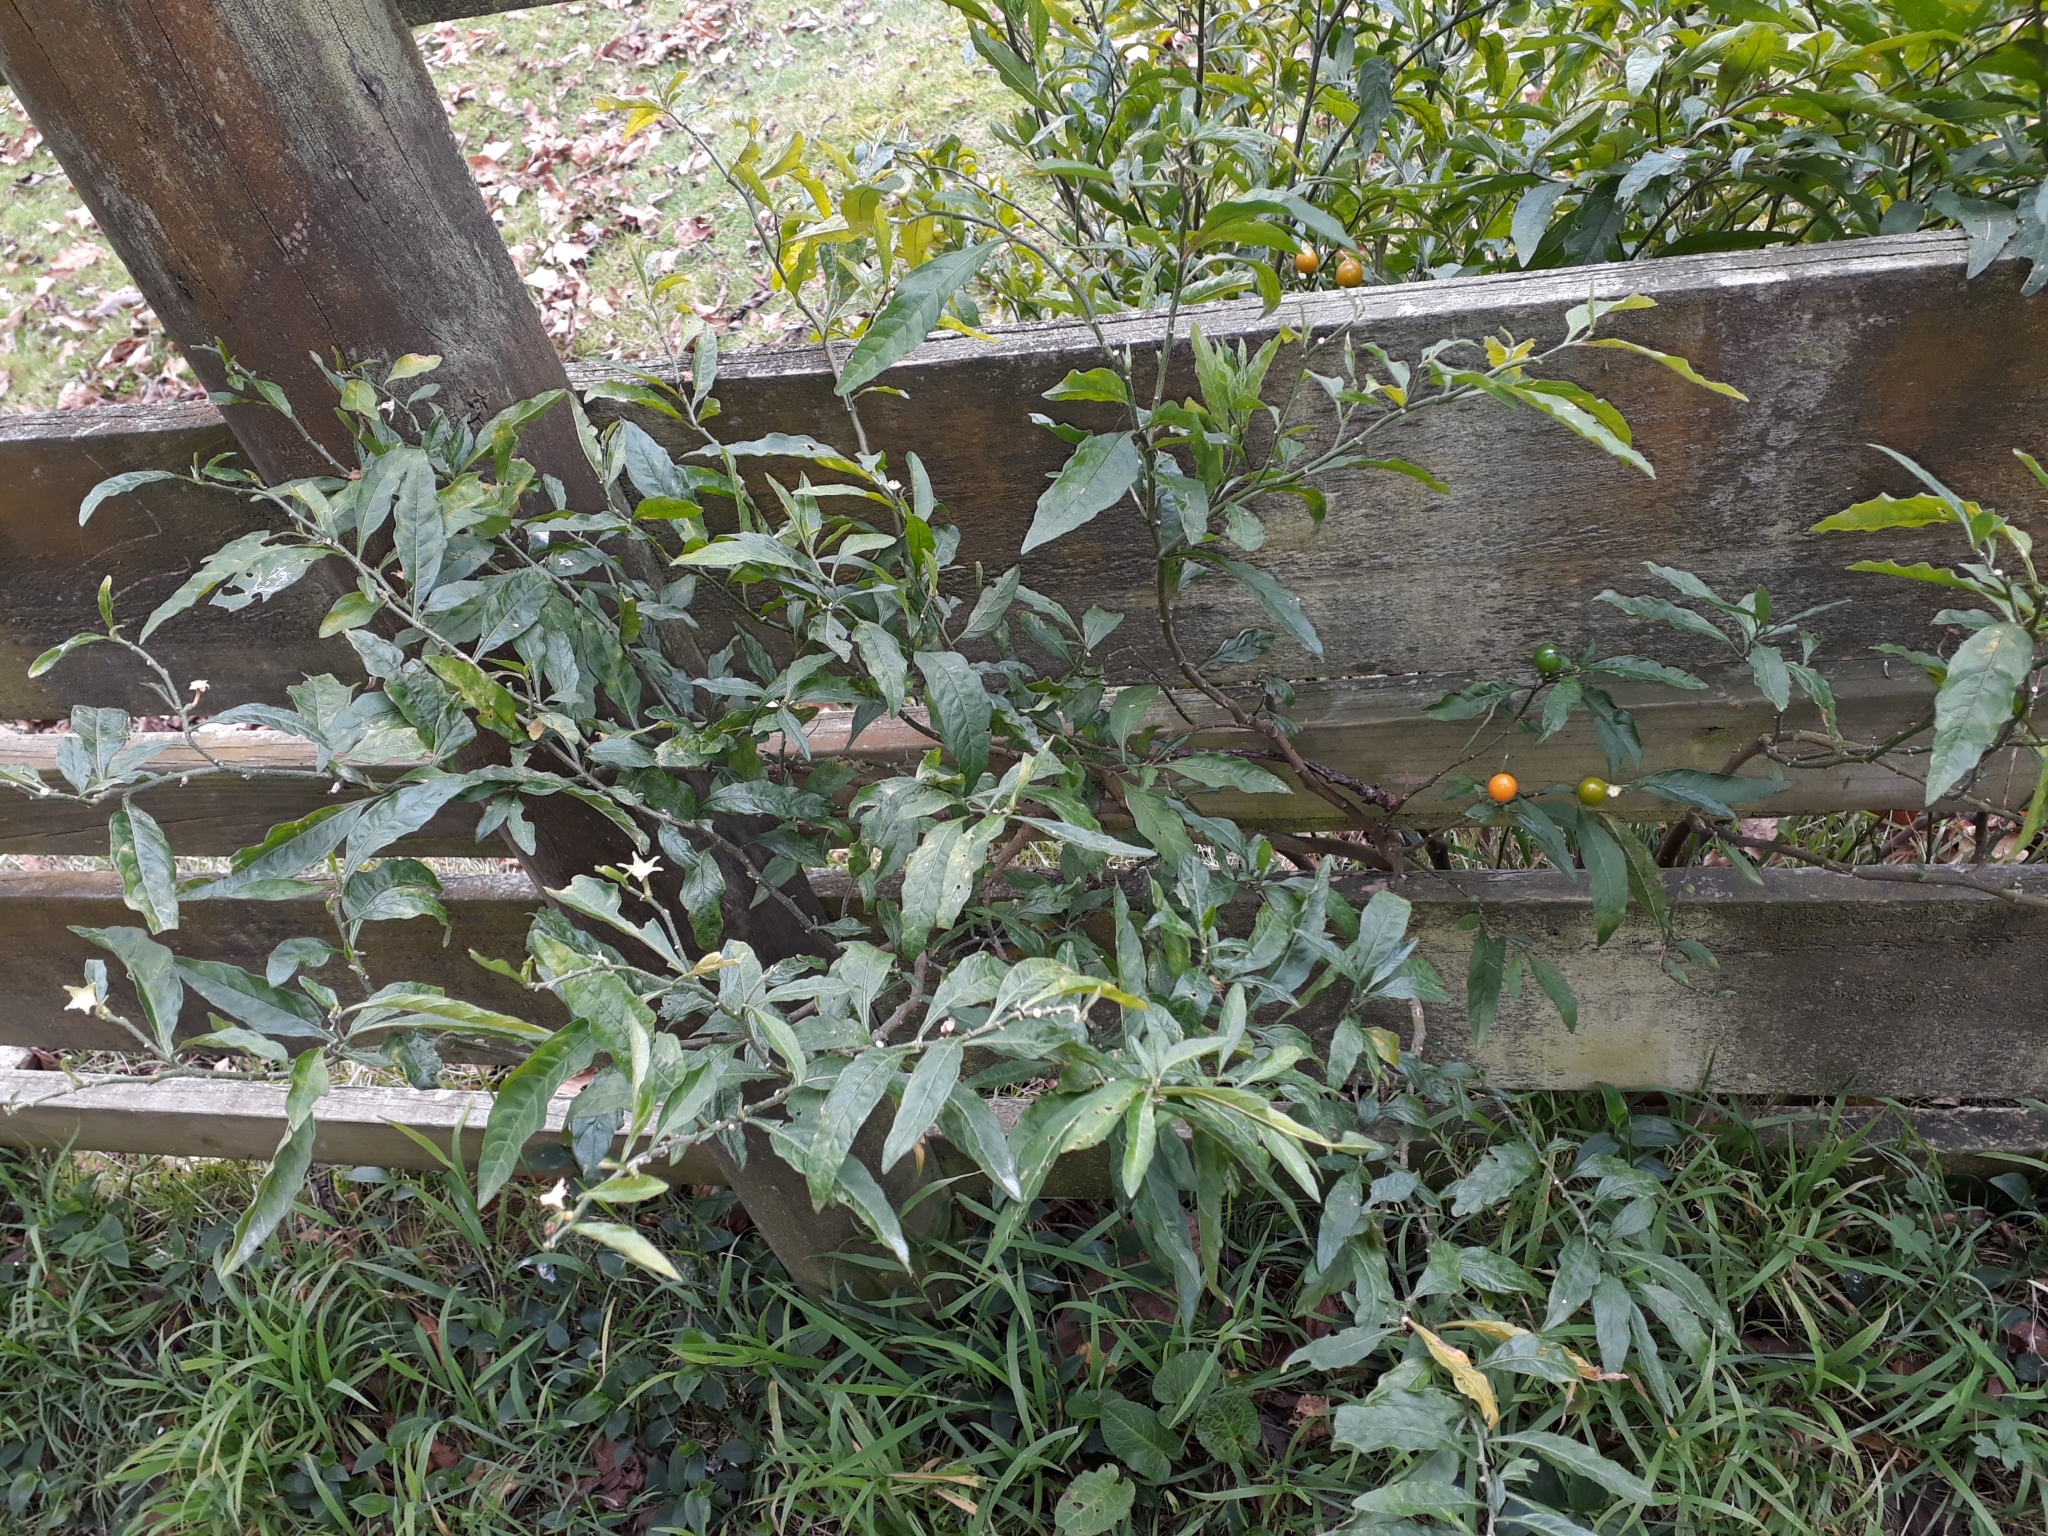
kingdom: Plantae
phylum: Tracheophyta
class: Magnoliopsida
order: Solanales
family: Solanaceae
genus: Solanum
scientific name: Solanum pseudocapsicum
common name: Jerusalem cherry
